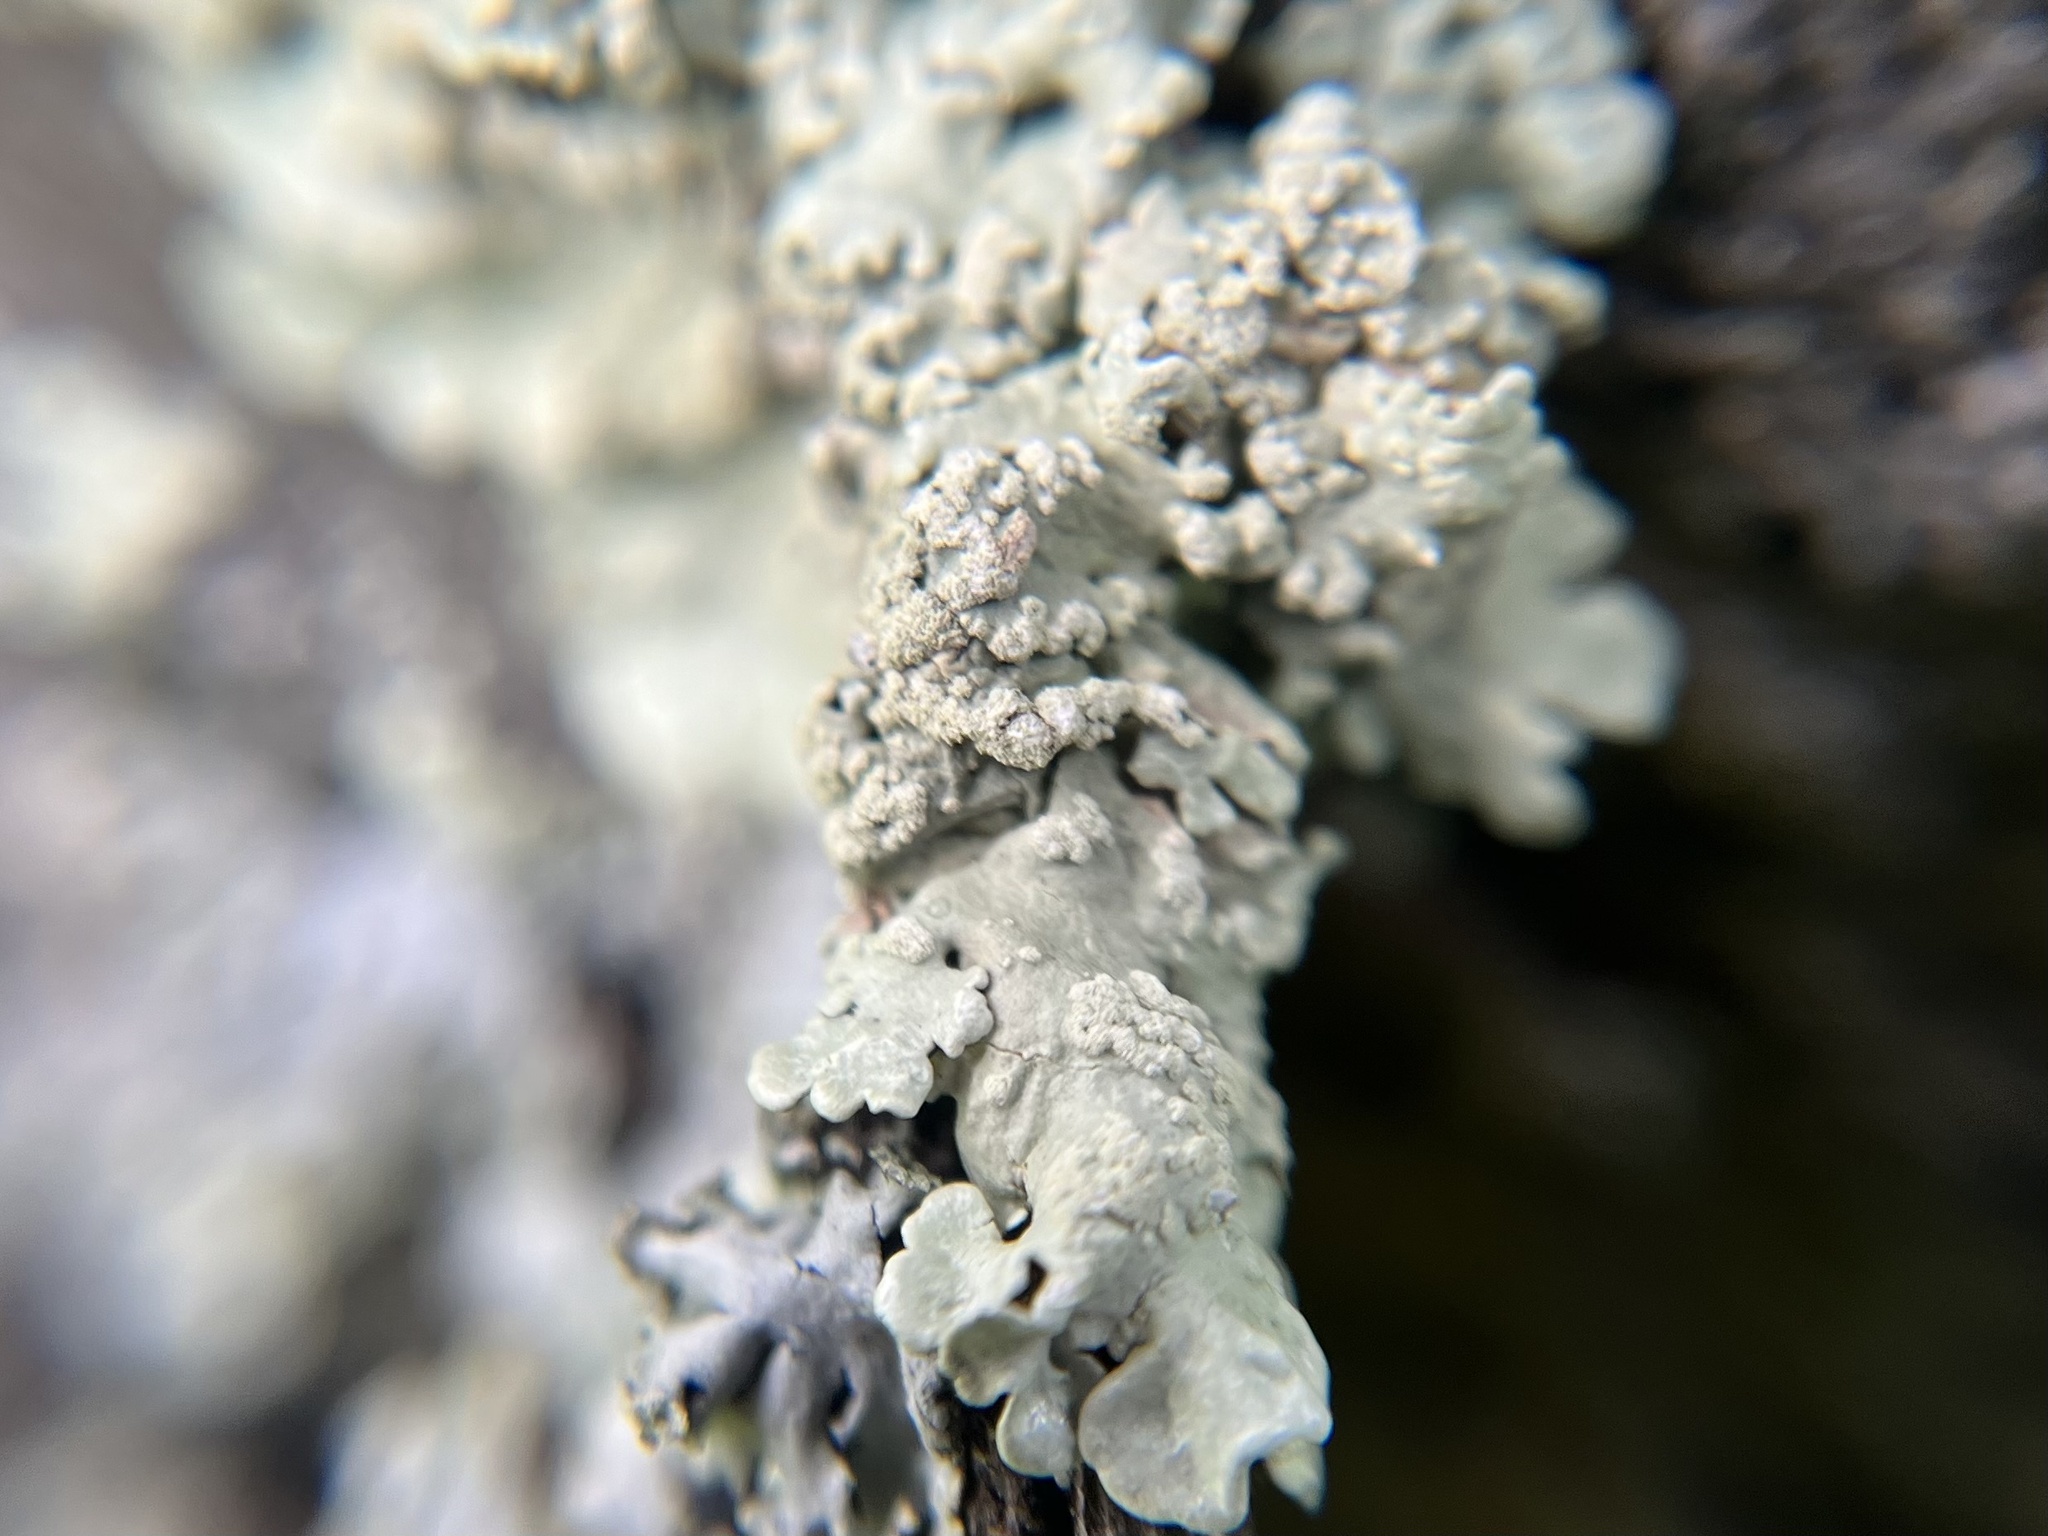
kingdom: Fungi
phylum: Ascomycota
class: Lecanoromycetes
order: Lecanorales
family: Parmeliaceae
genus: Flavoparmelia
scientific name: Flavoparmelia soredians
